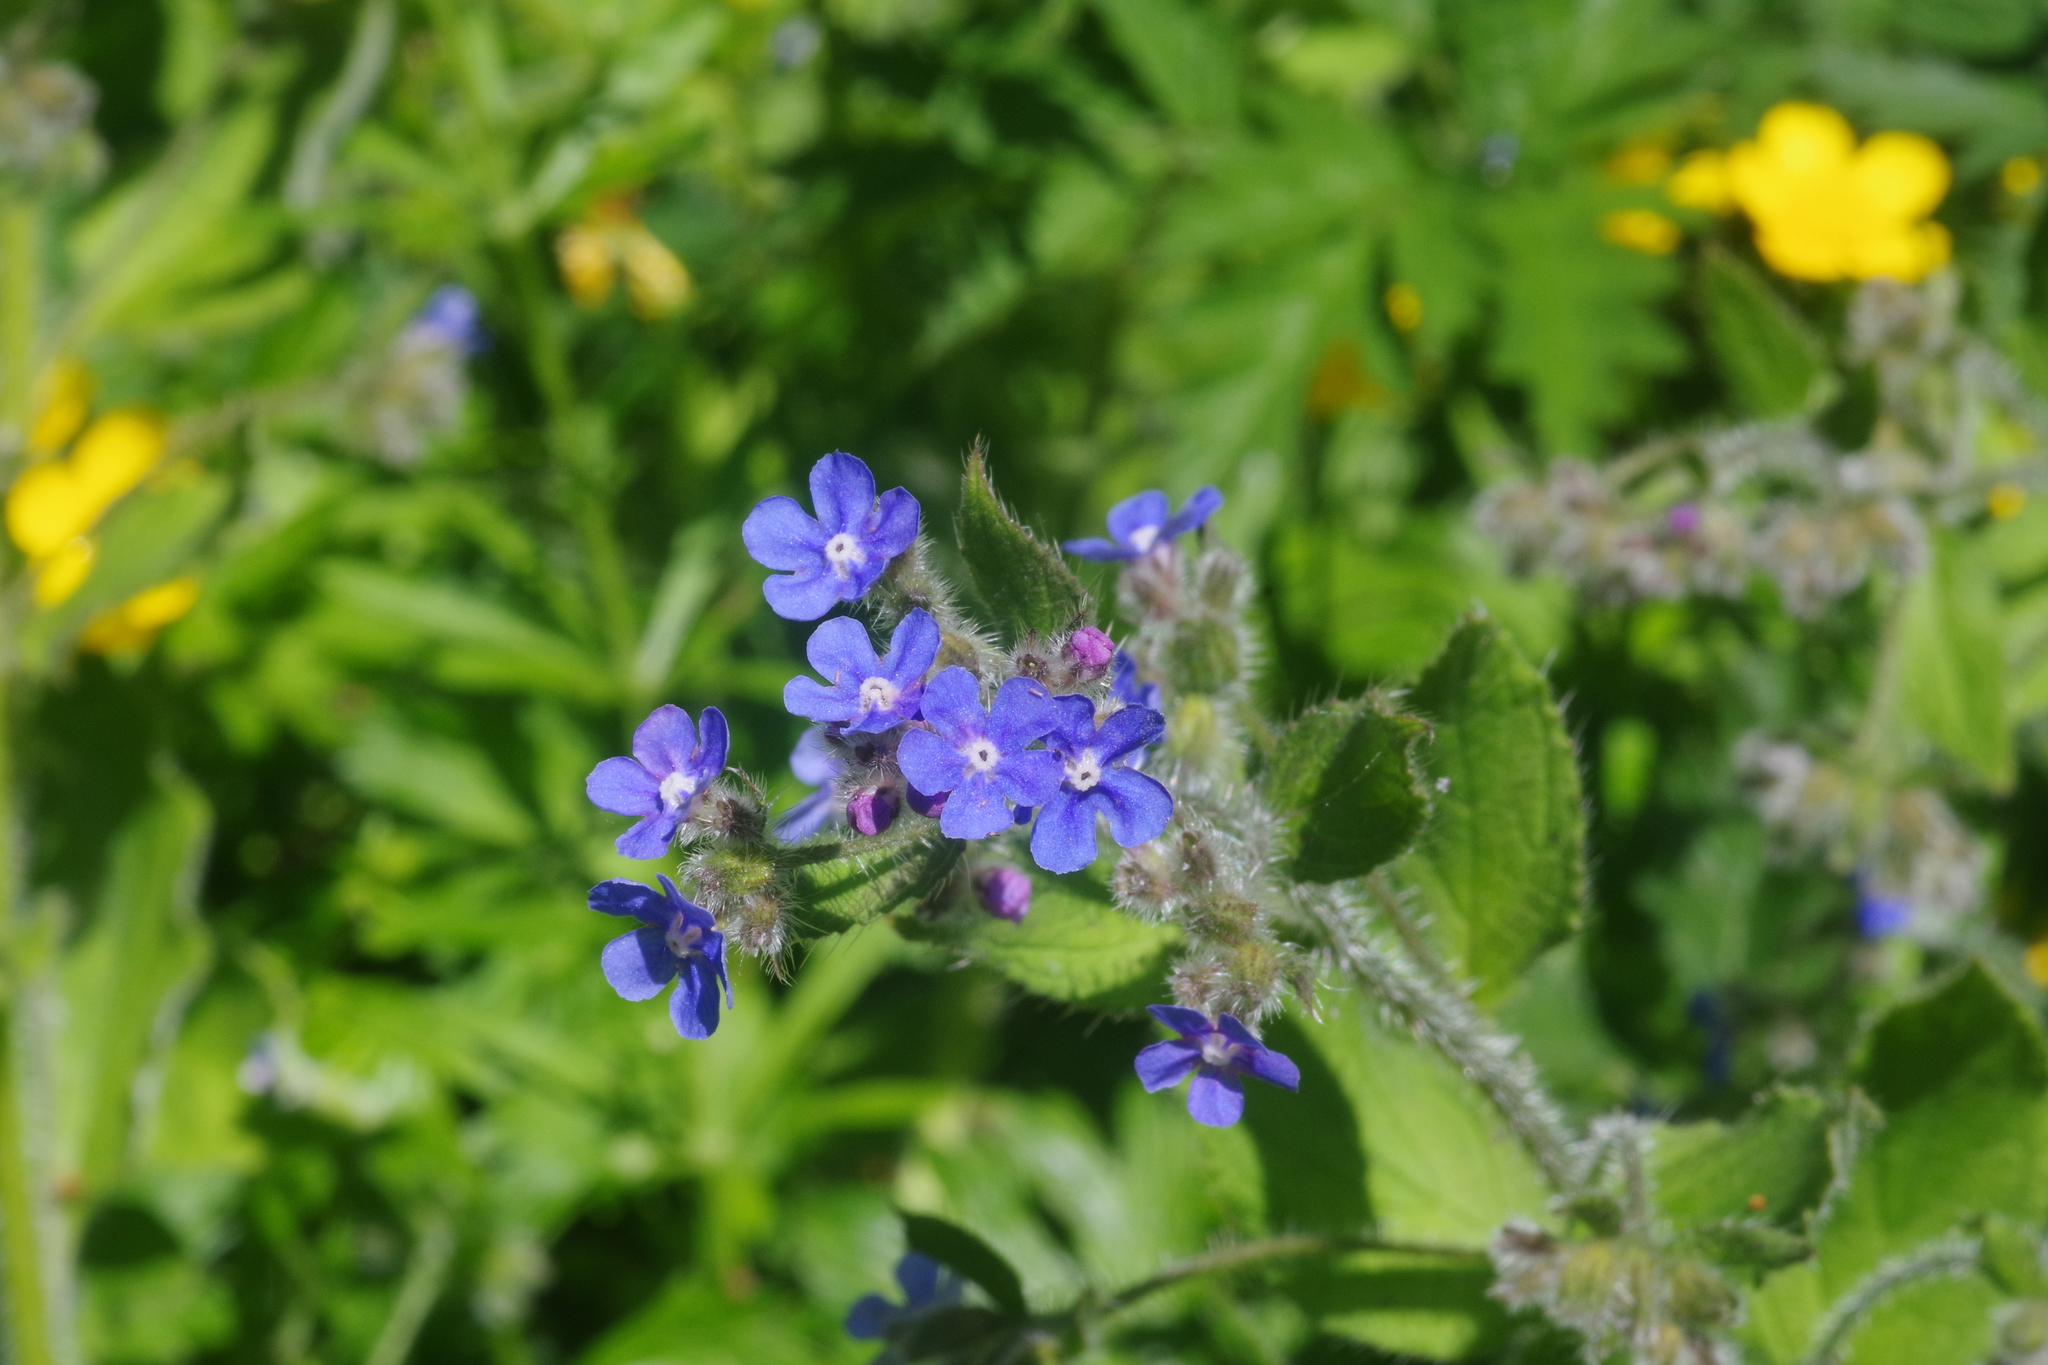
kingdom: Plantae
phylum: Tracheophyta
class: Magnoliopsida
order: Boraginales
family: Boraginaceae
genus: Pentaglottis
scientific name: Pentaglottis sempervirens
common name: Green alkanet
